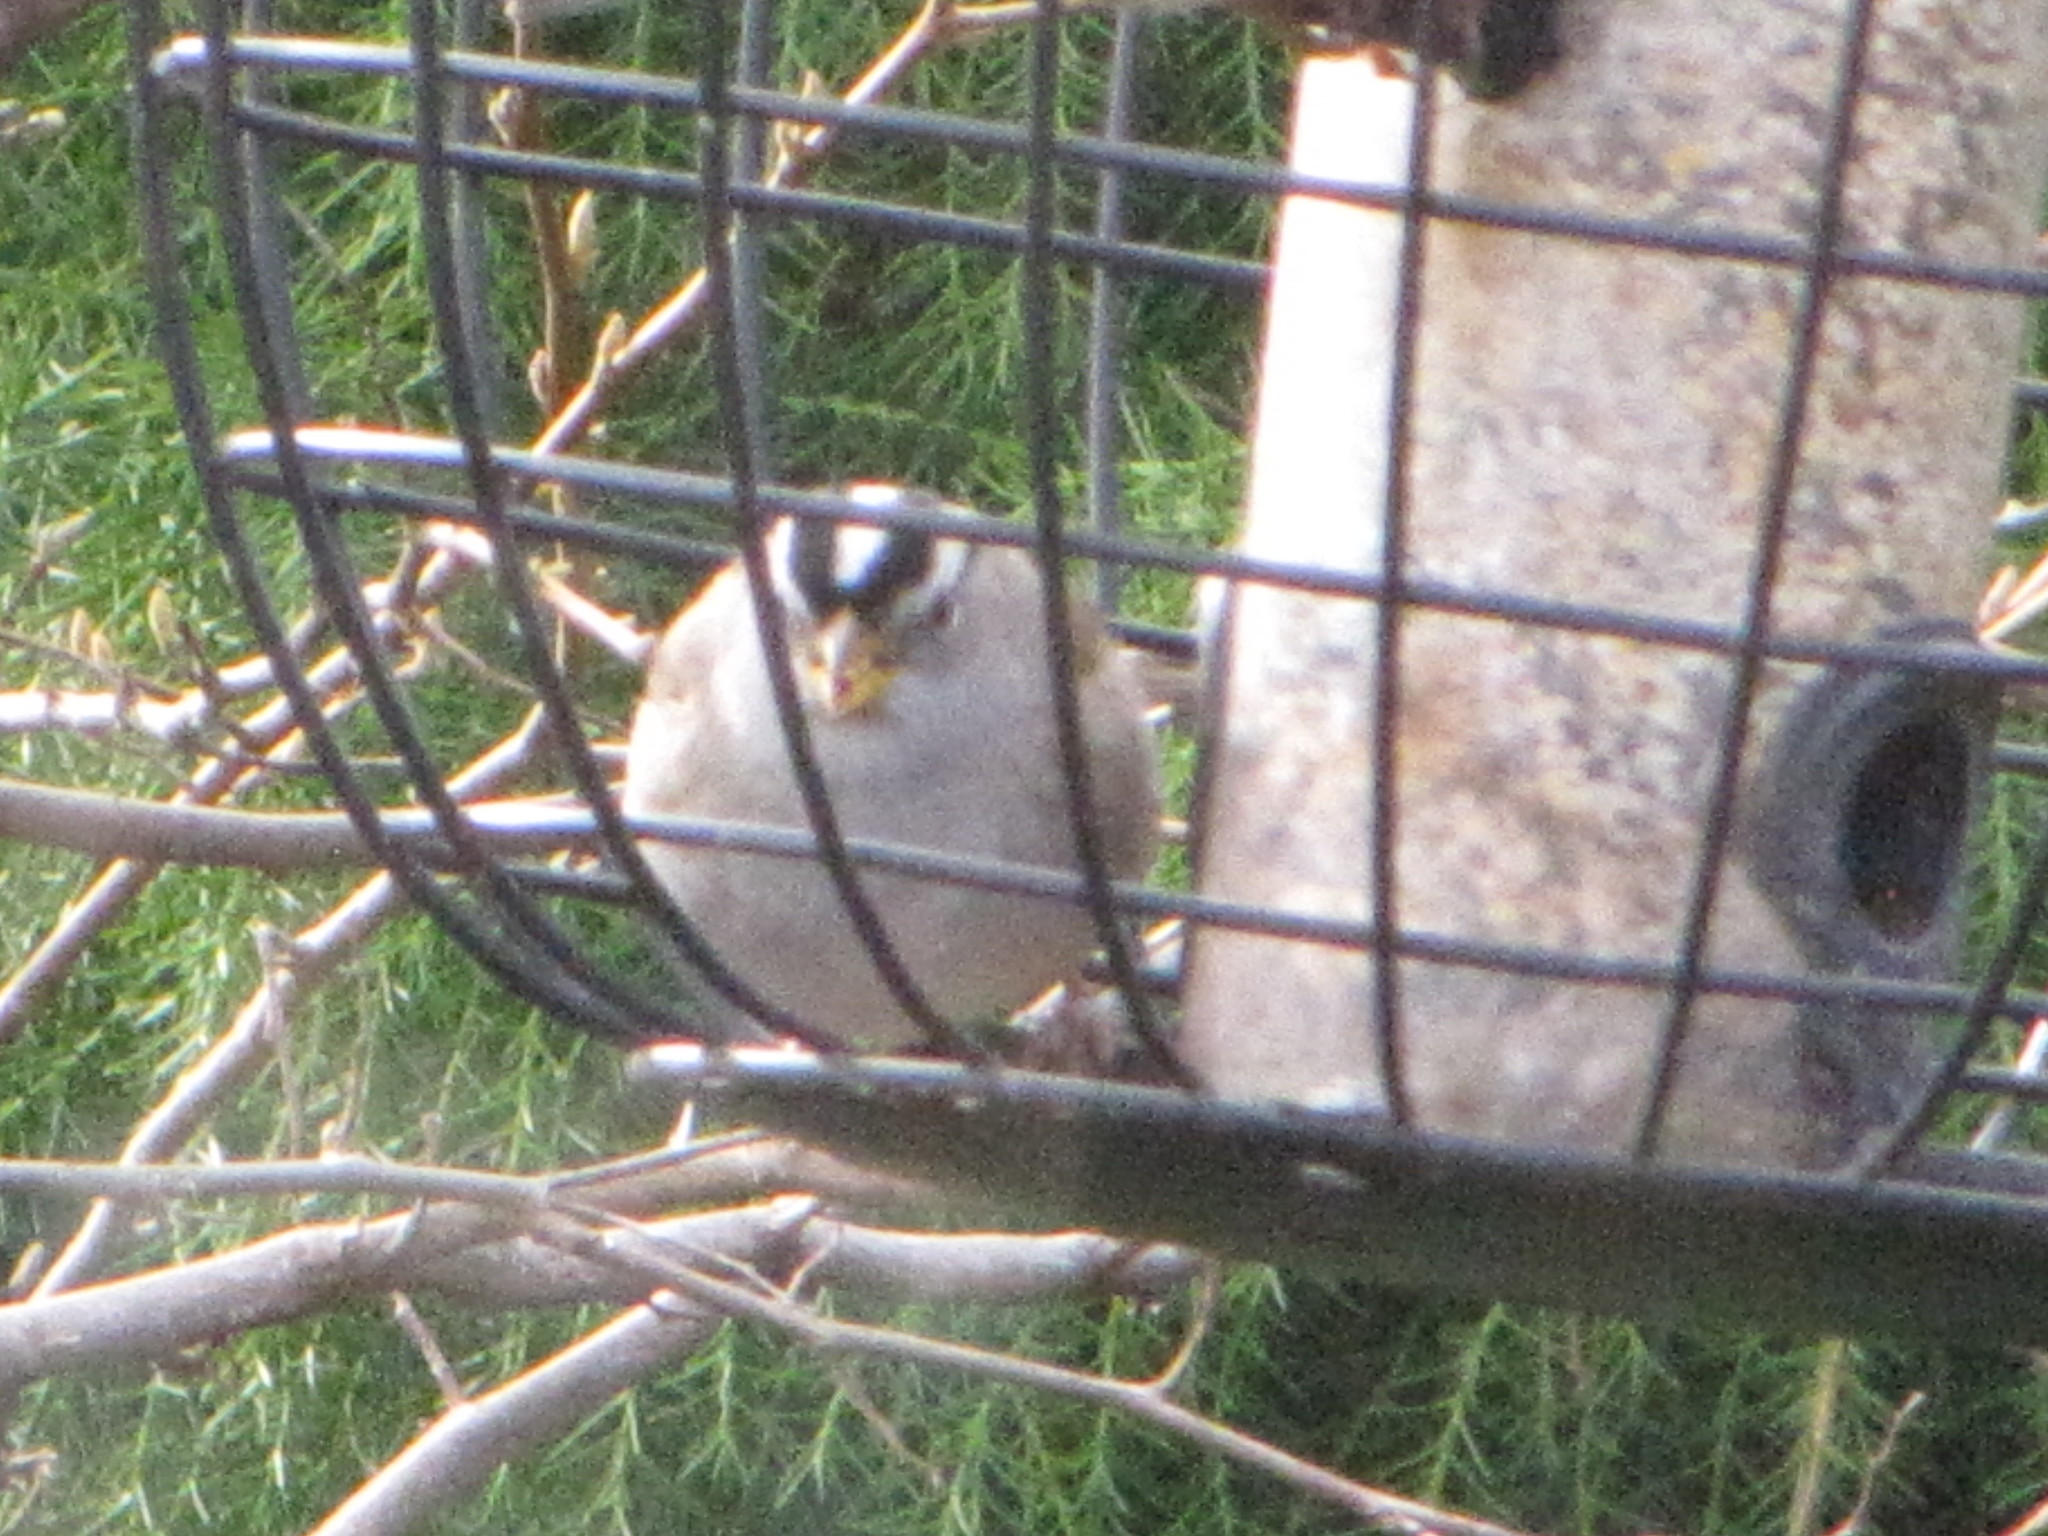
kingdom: Animalia
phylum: Chordata
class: Aves
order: Passeriformes
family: Passerellidae
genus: Zonotrichia
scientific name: Zonotrichia leucophrys
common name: White-crowned sparrow
